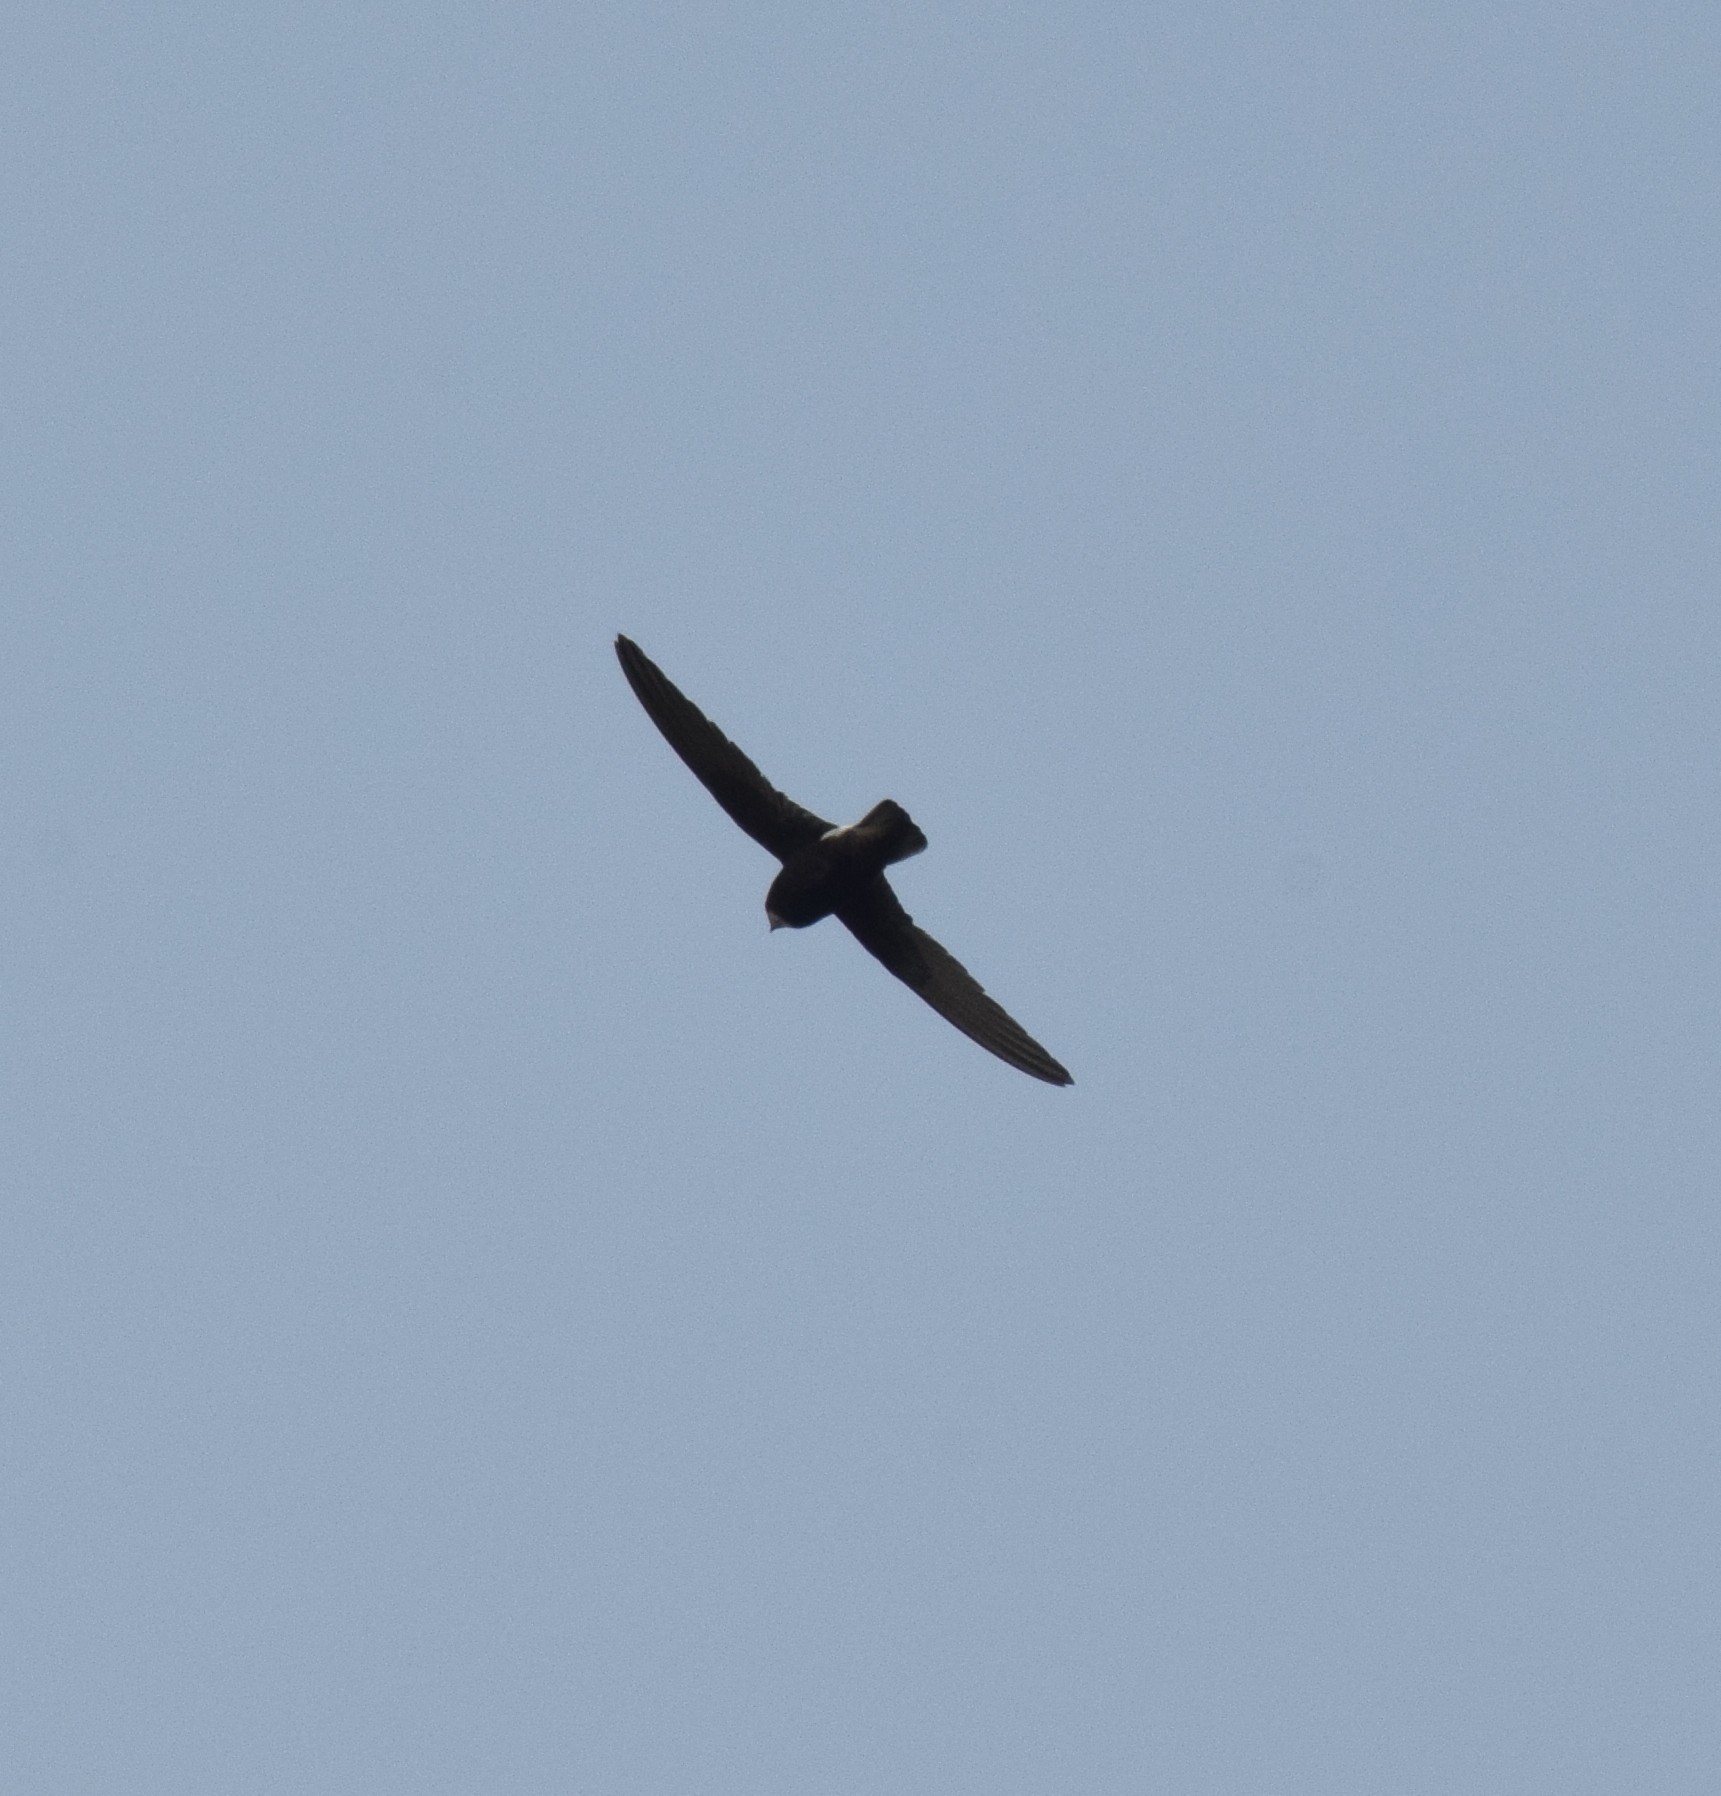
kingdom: Animalia
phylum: Chordata
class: Aves
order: Apodiformes
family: Apodidae
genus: Apus
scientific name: Apus affinis
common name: Little swift
